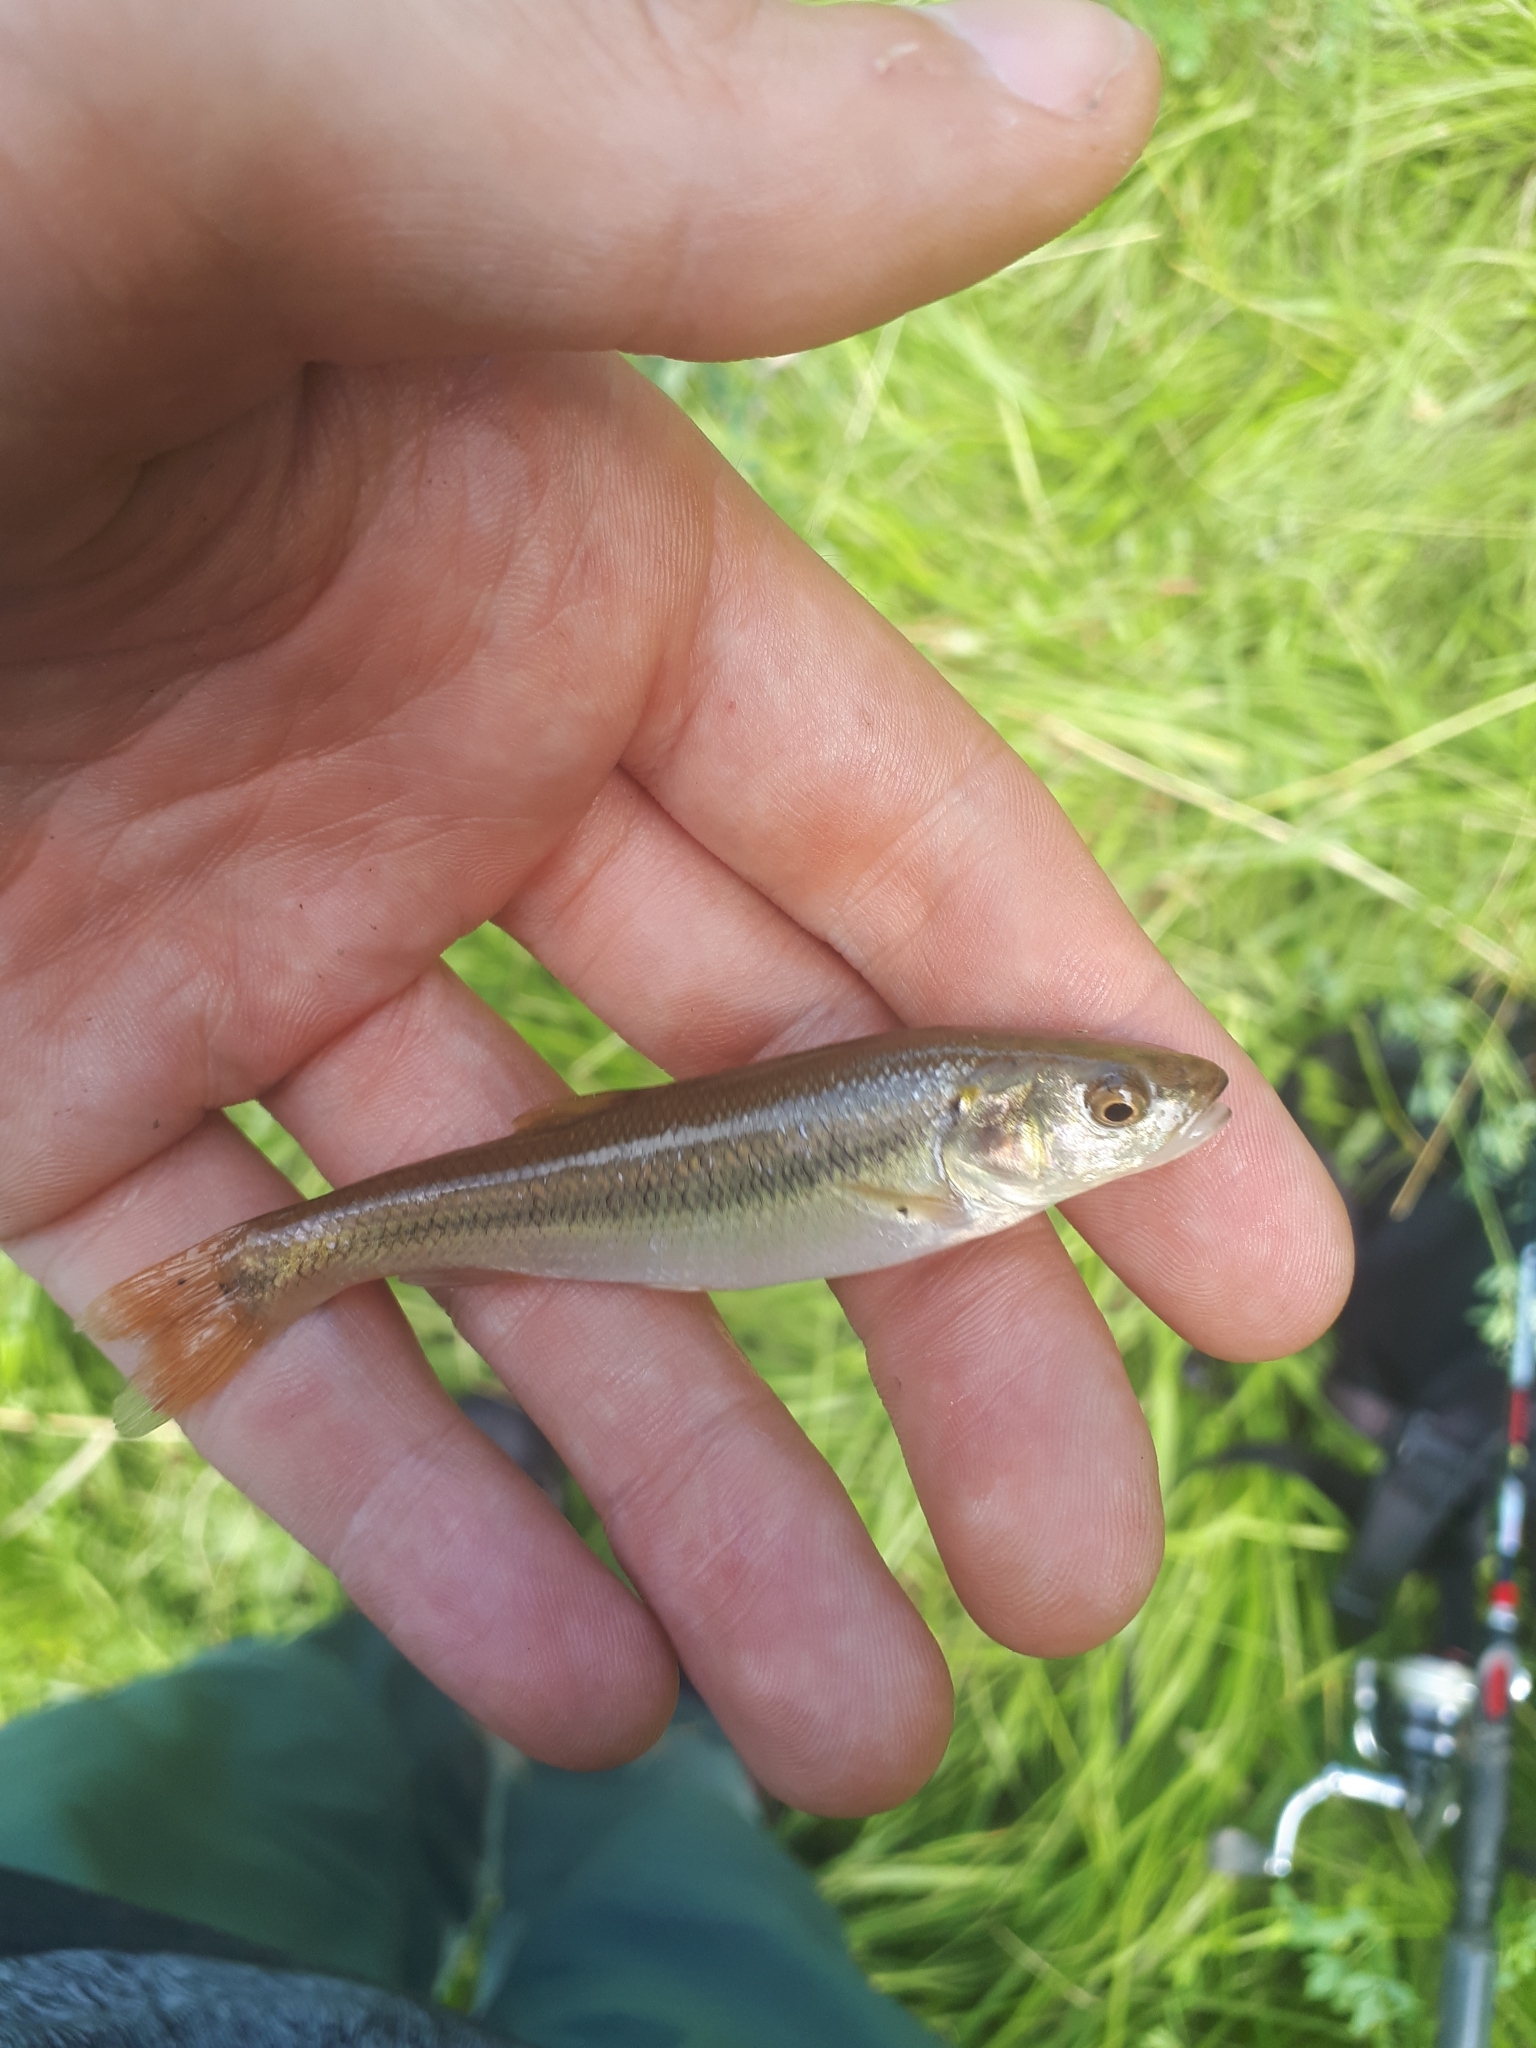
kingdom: Animalia
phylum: Chordata
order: Cypriniformes
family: Cyprinidae
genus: Semotilus
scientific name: Semotilus atromaculatus
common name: Creek chub
